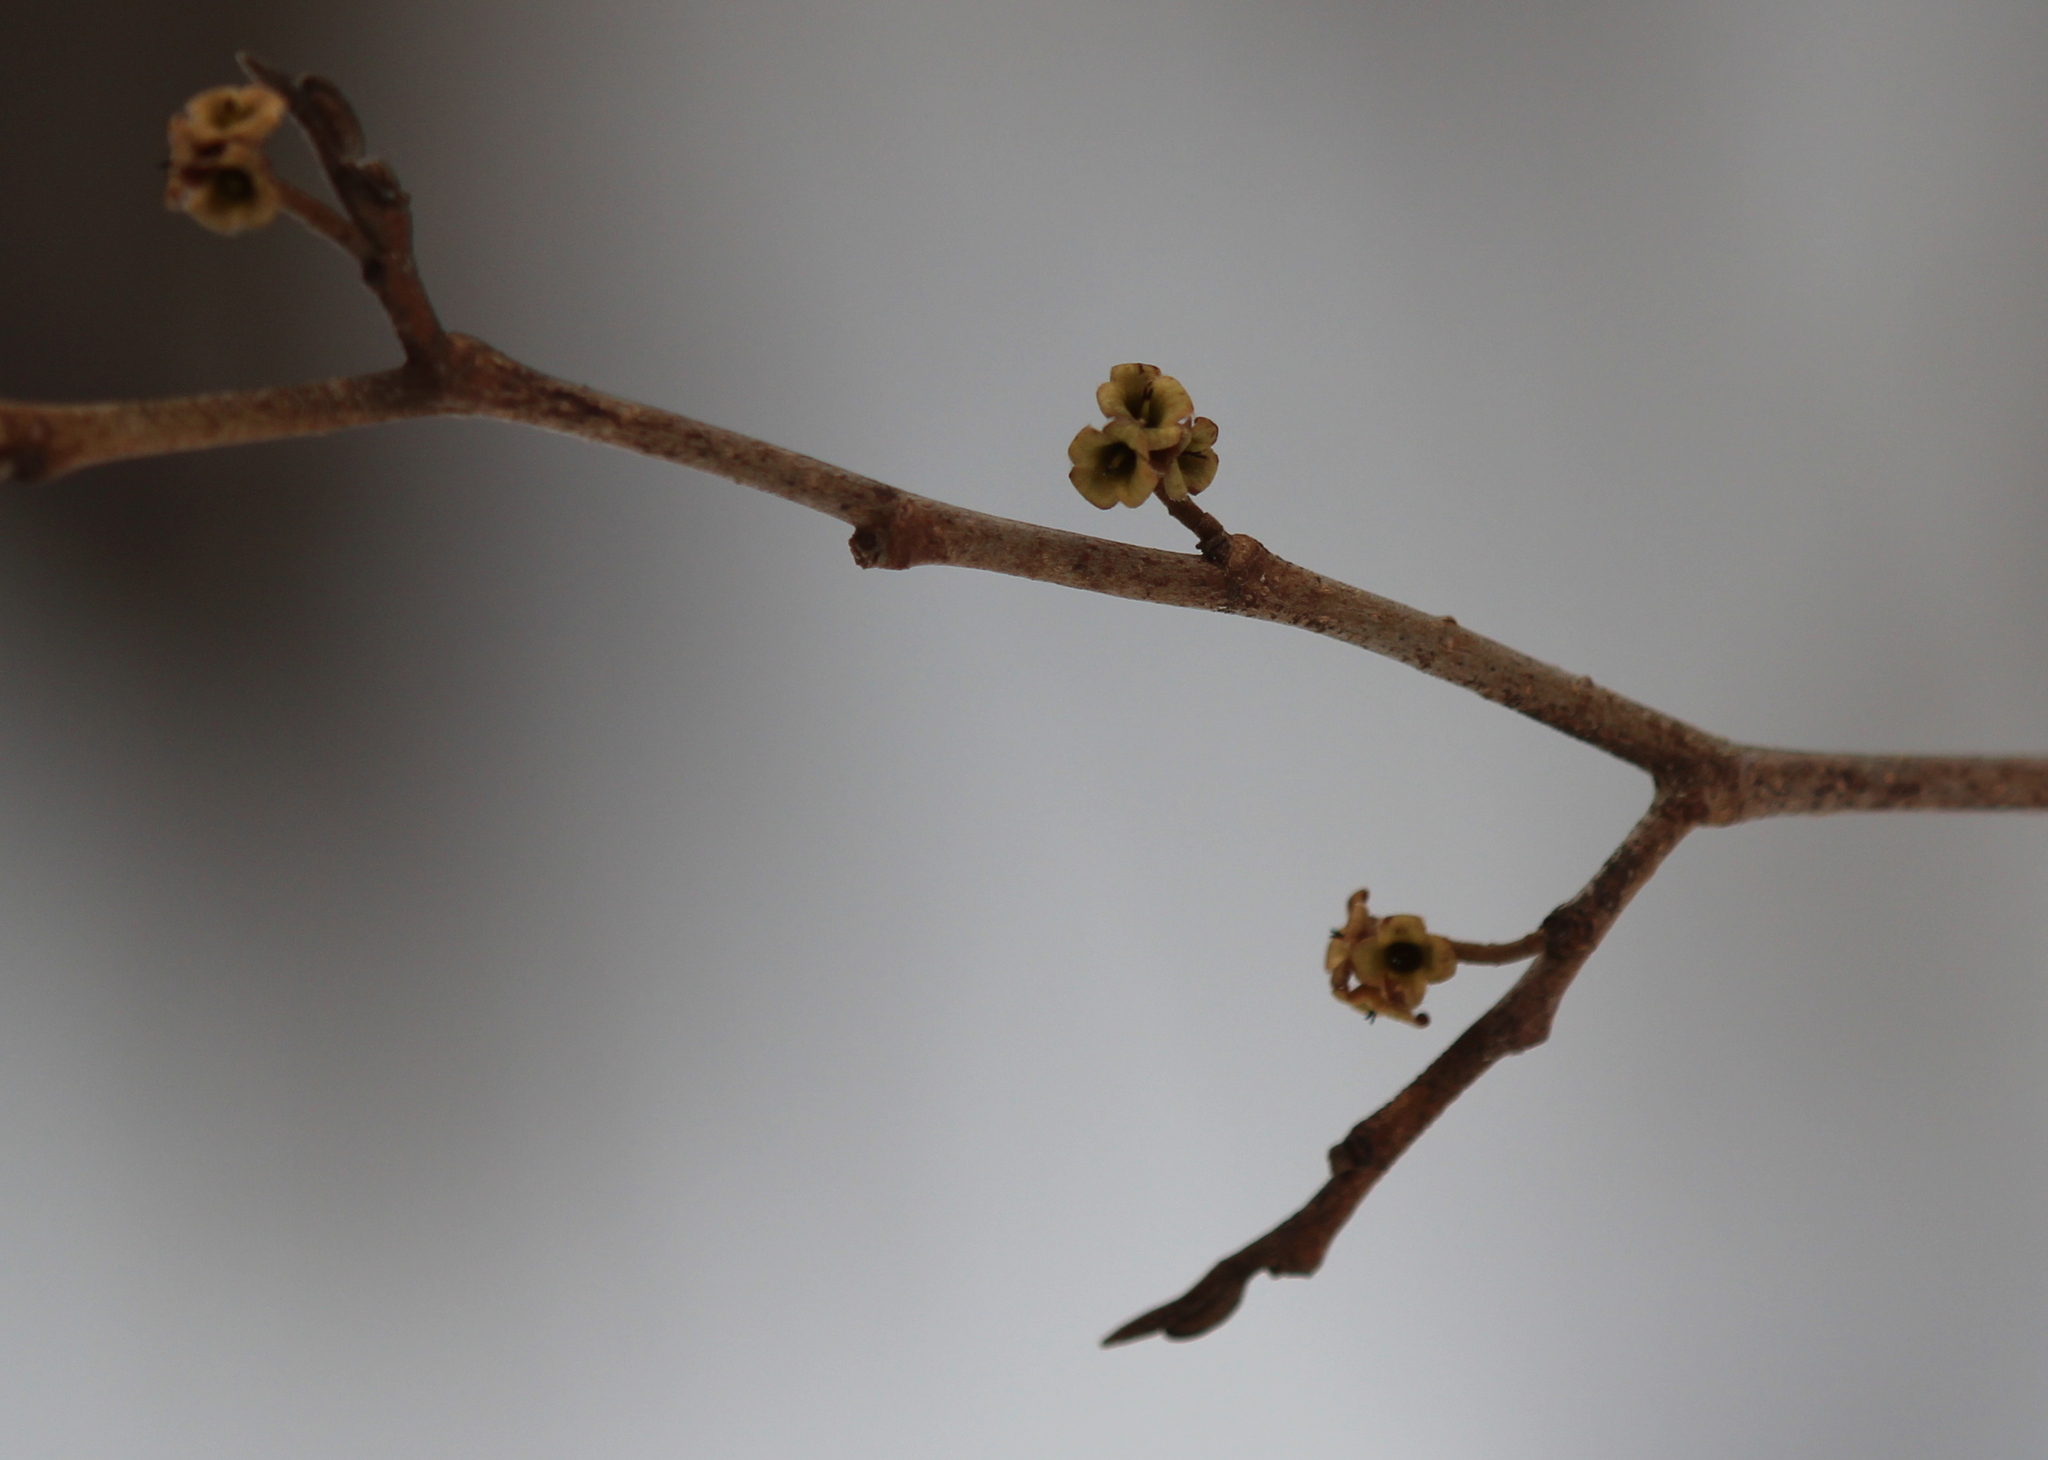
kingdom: Plantae
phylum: Tracheophyta
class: Magnoliopsida
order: Saxifragales
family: Hamamelidaceae
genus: Hamamelis
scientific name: Hamamelis virginiana
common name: Witch-hazel
